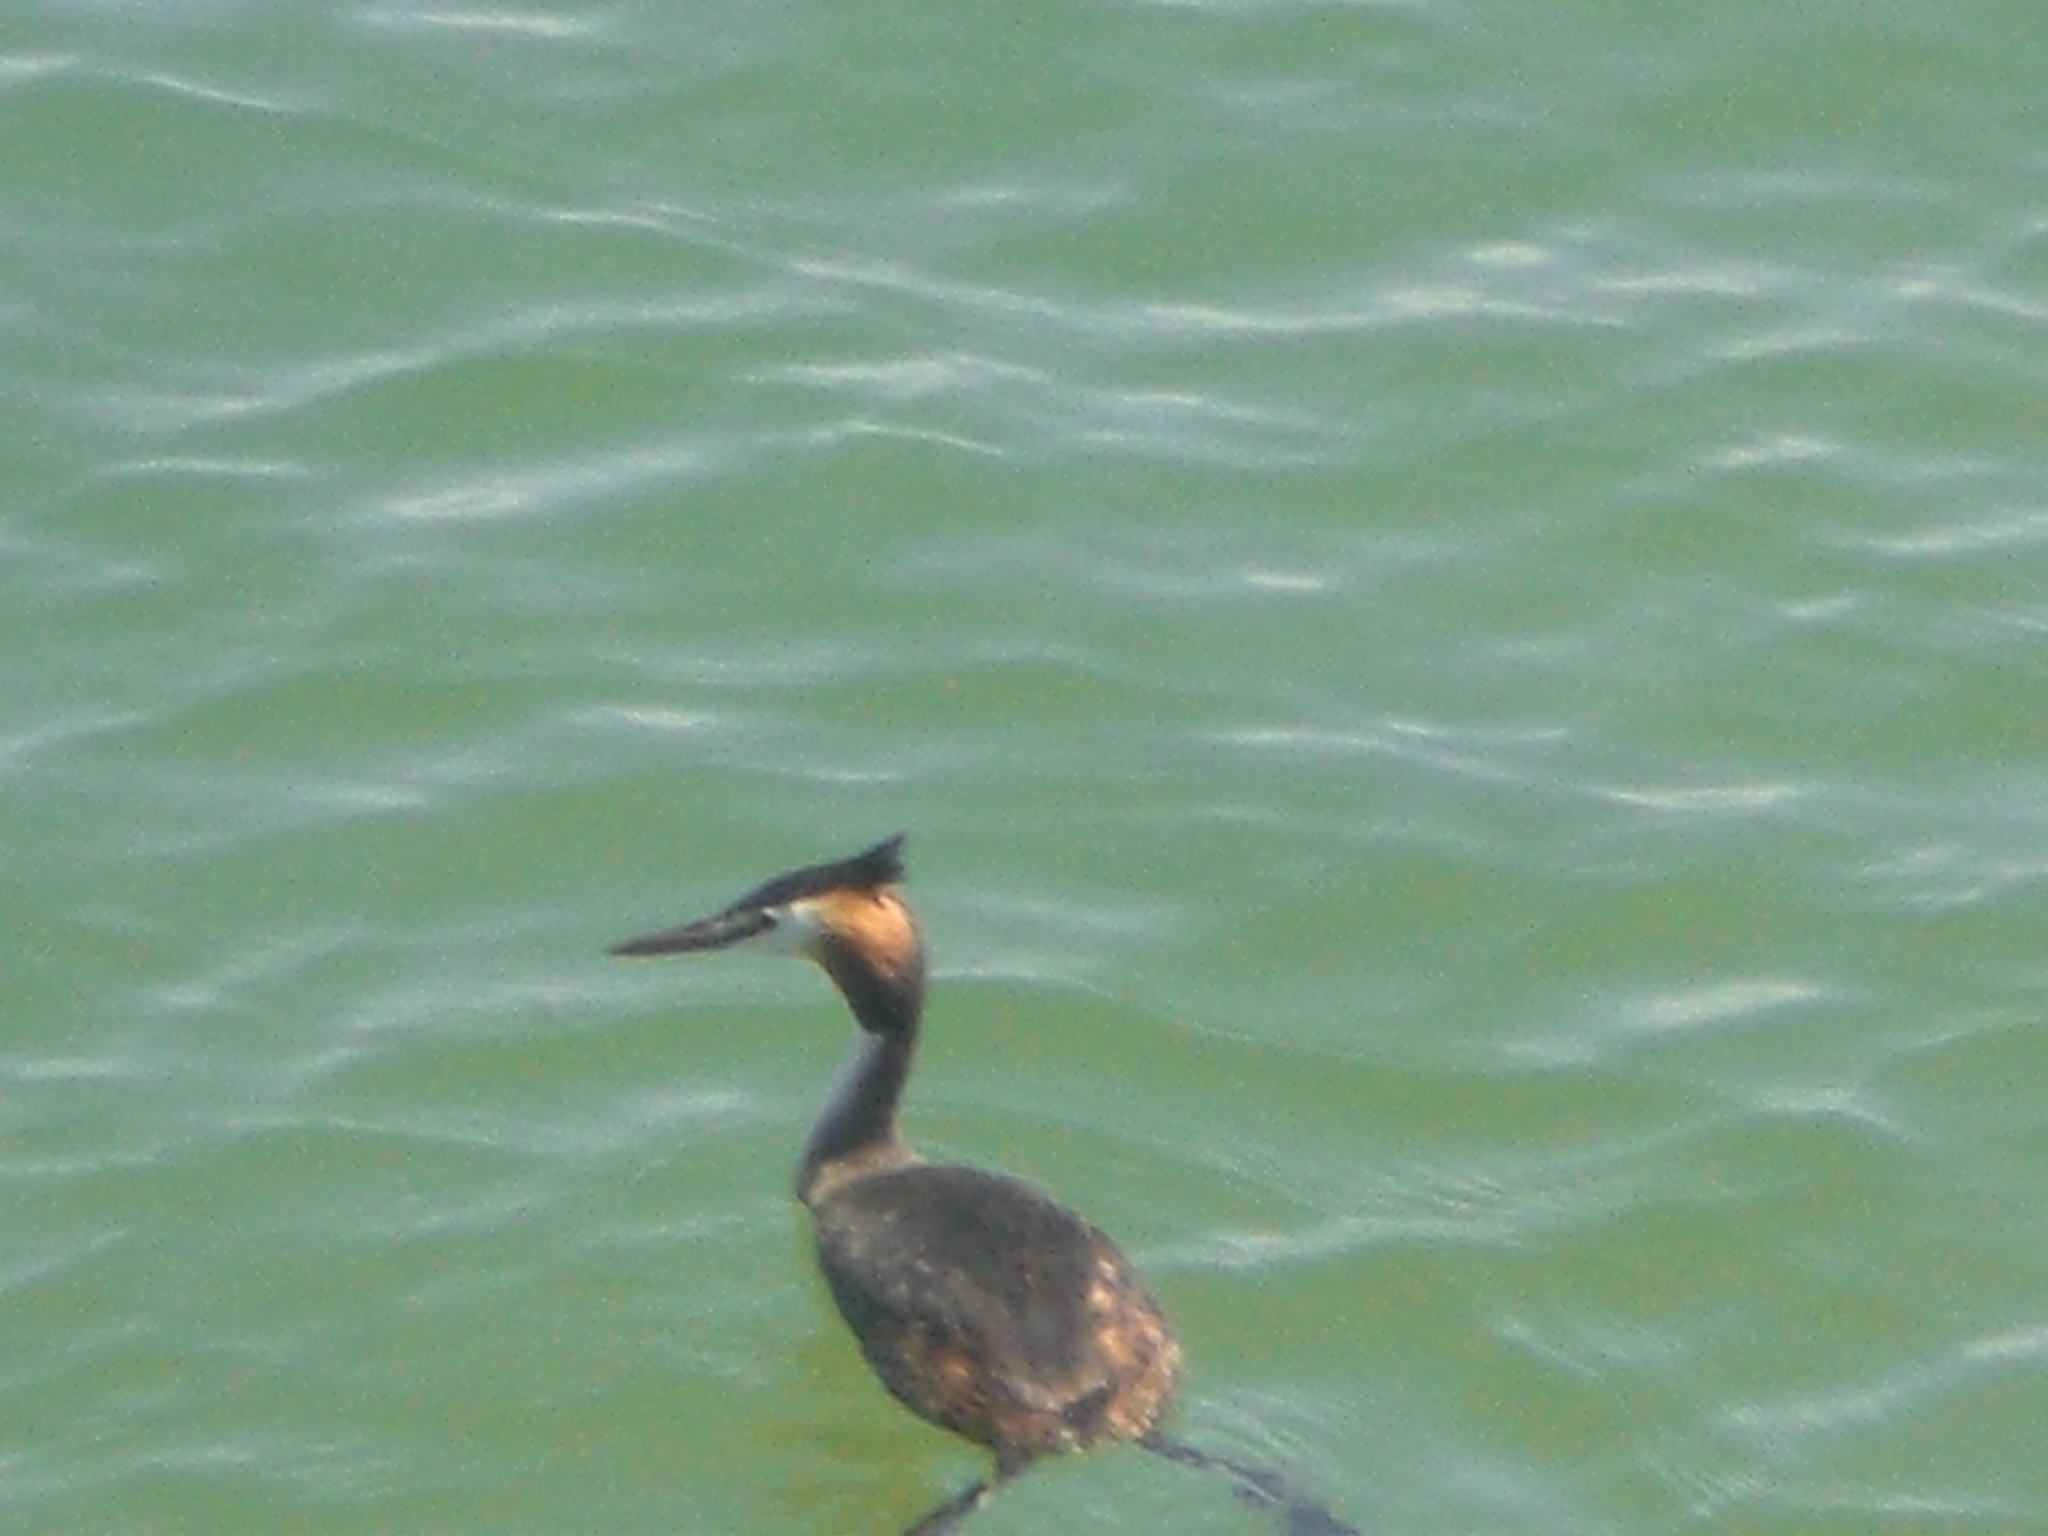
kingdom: Animalia
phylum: Chordata
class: Aves
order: Podicipediformes
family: Podicipedidae
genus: Podiceps
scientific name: Podiceps cristatus
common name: Great crested grebe
